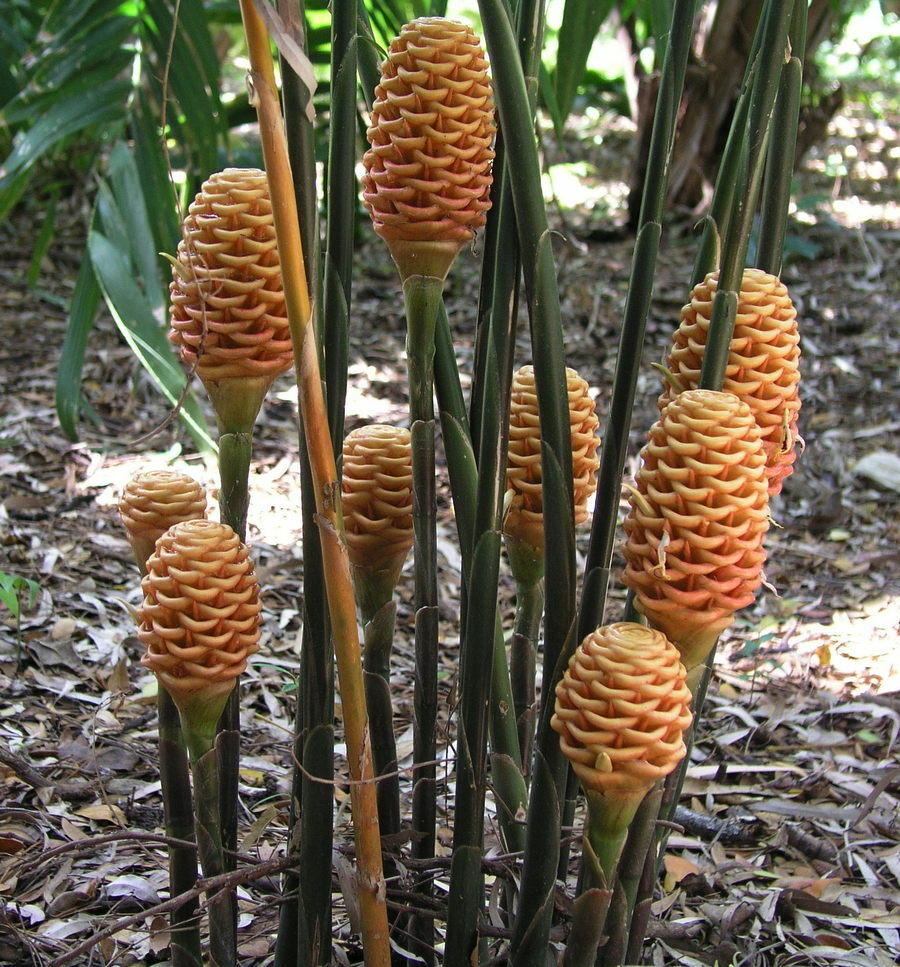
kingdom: Plantae
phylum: Tracheophyta
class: Liliopsida
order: Zingiberales
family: Zingiberaceae
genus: Zingiber
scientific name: Zingiber spectabile
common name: Beehive ginger
